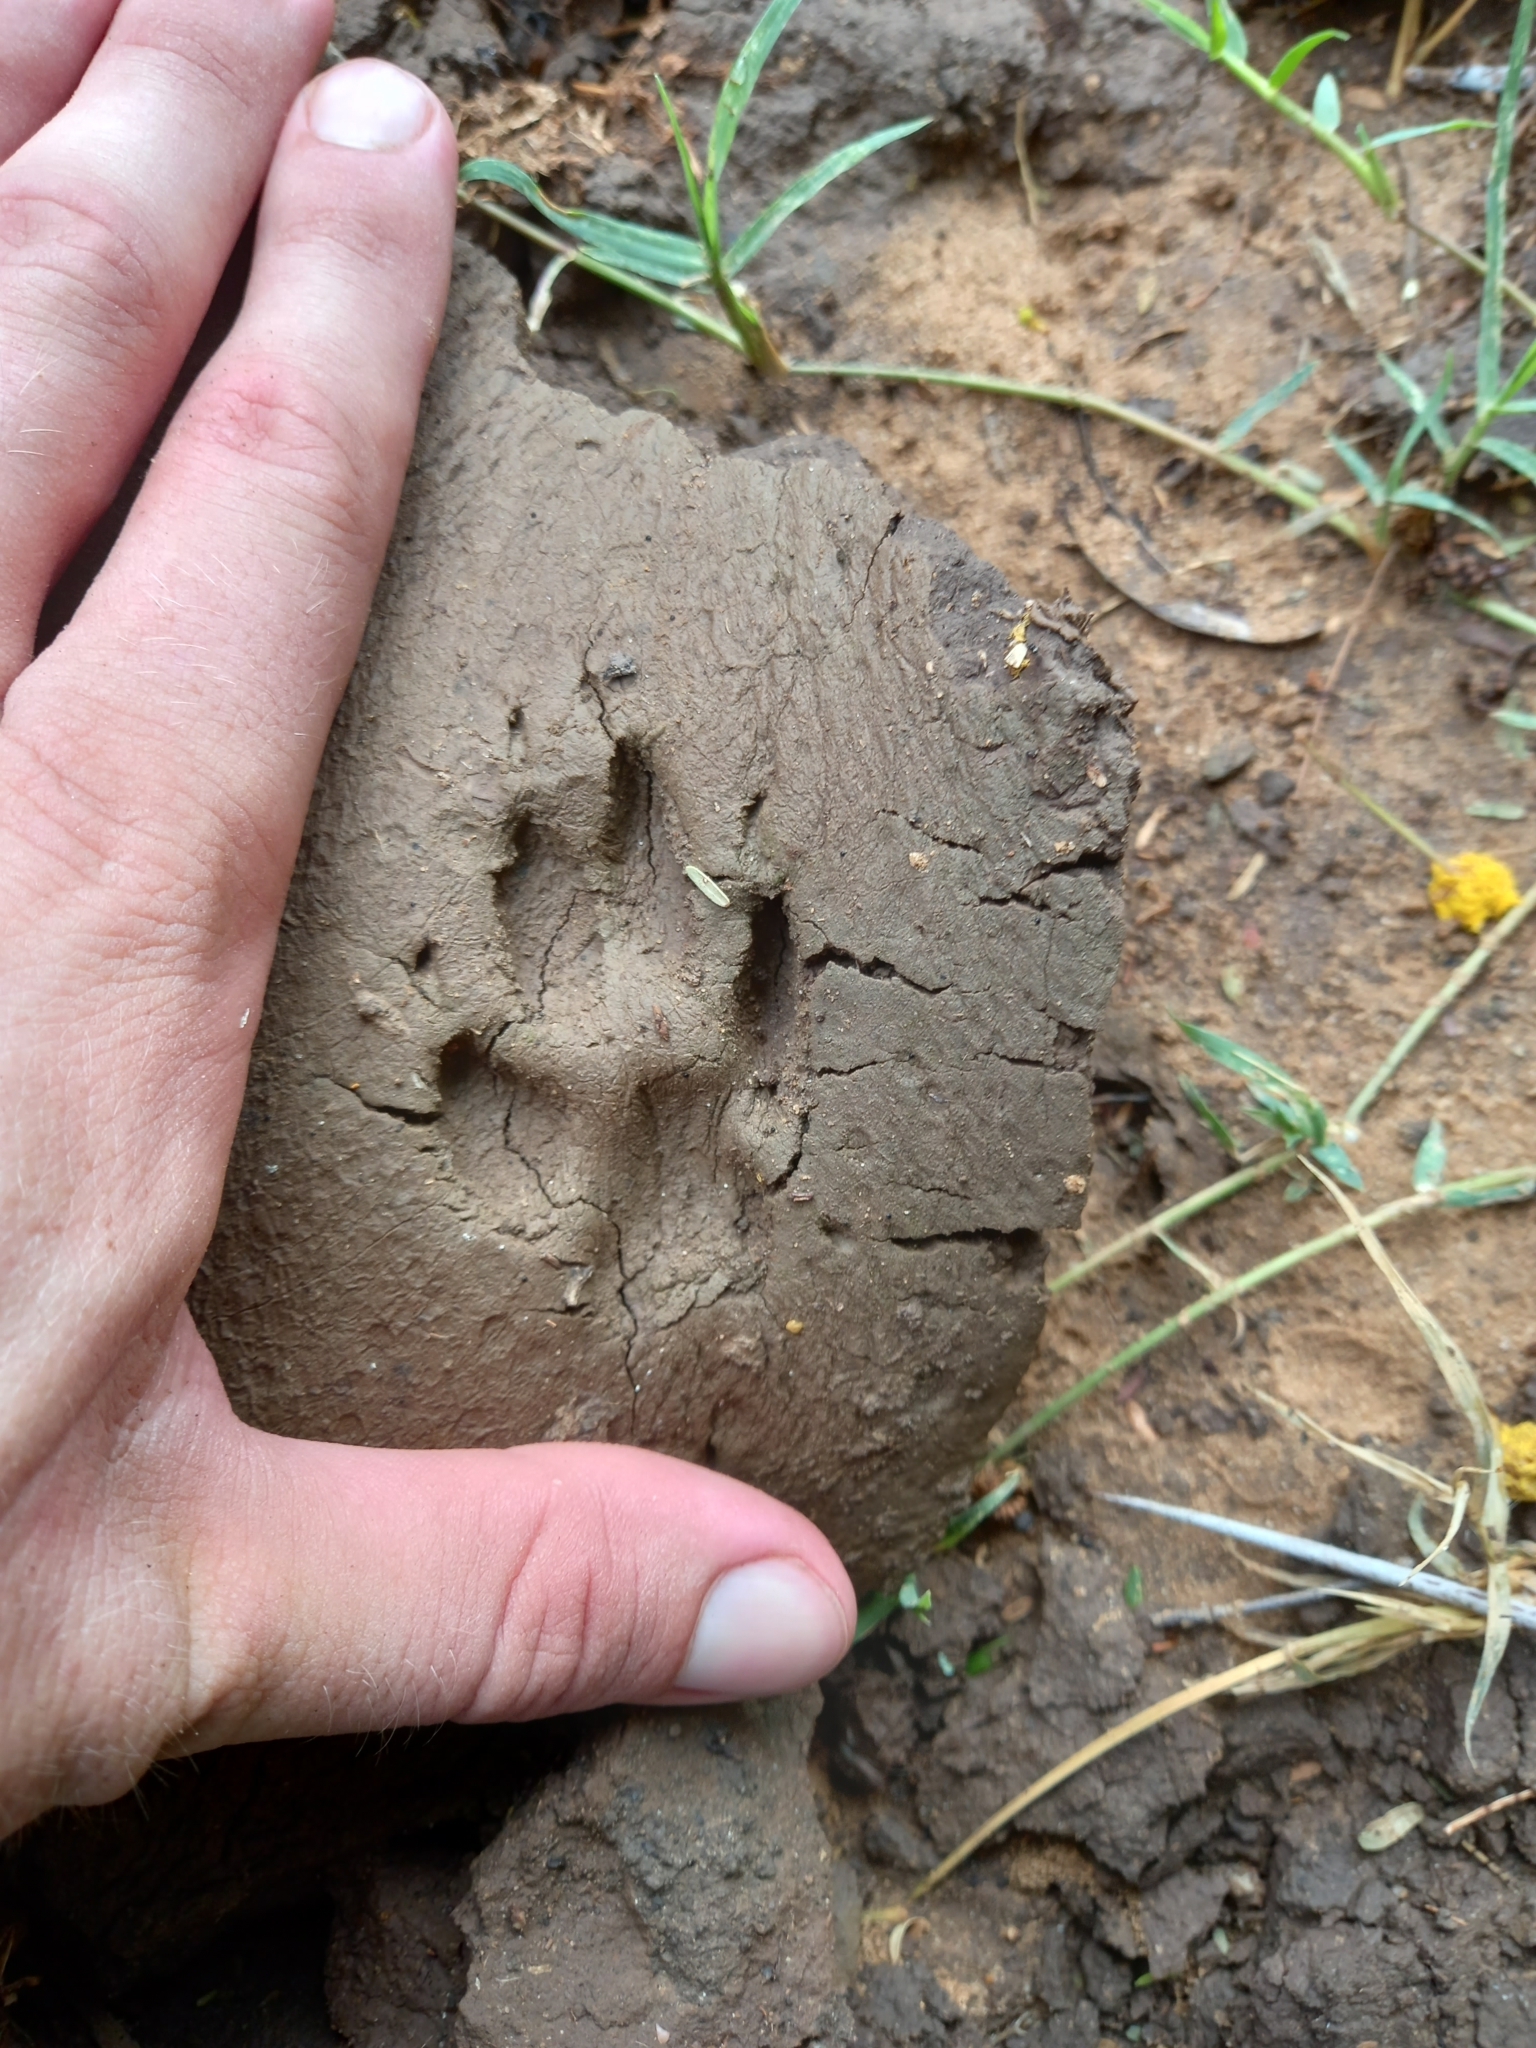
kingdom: Animalia
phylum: Chordata
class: Mammalia
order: Carnivora
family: Canidae
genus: Lupulella
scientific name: Lupulella
